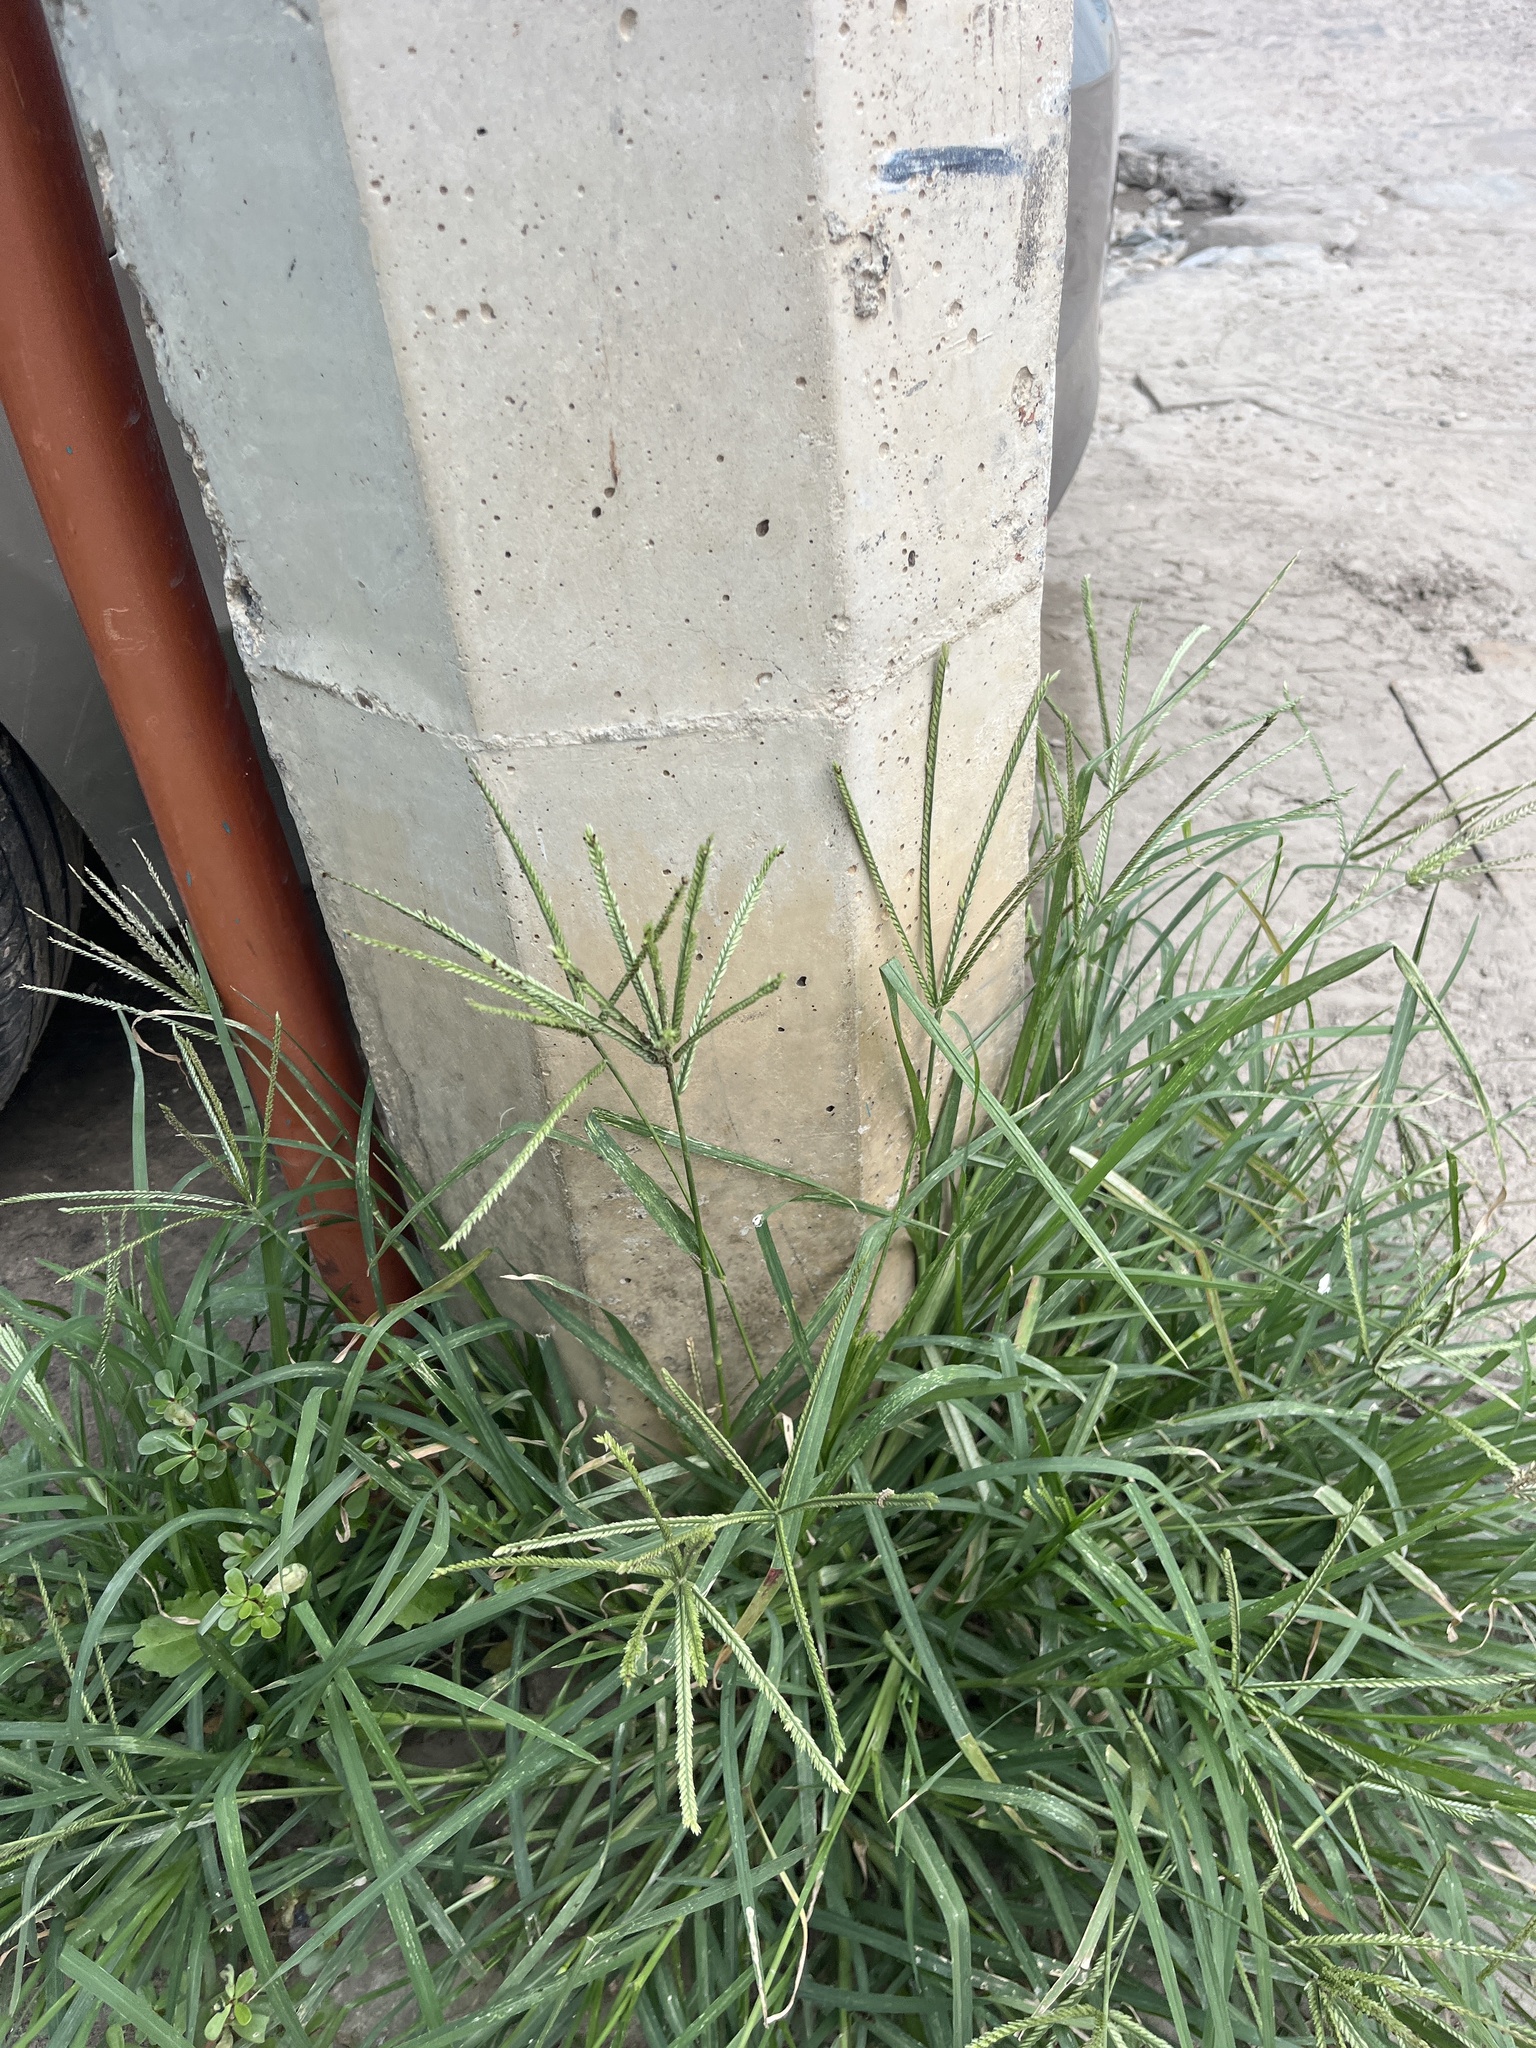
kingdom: Plantae
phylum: Tracheophyta
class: Liliopsida
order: Poales
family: Poaceae
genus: Eleusine
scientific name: Eleusine indica
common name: Yard-grass
